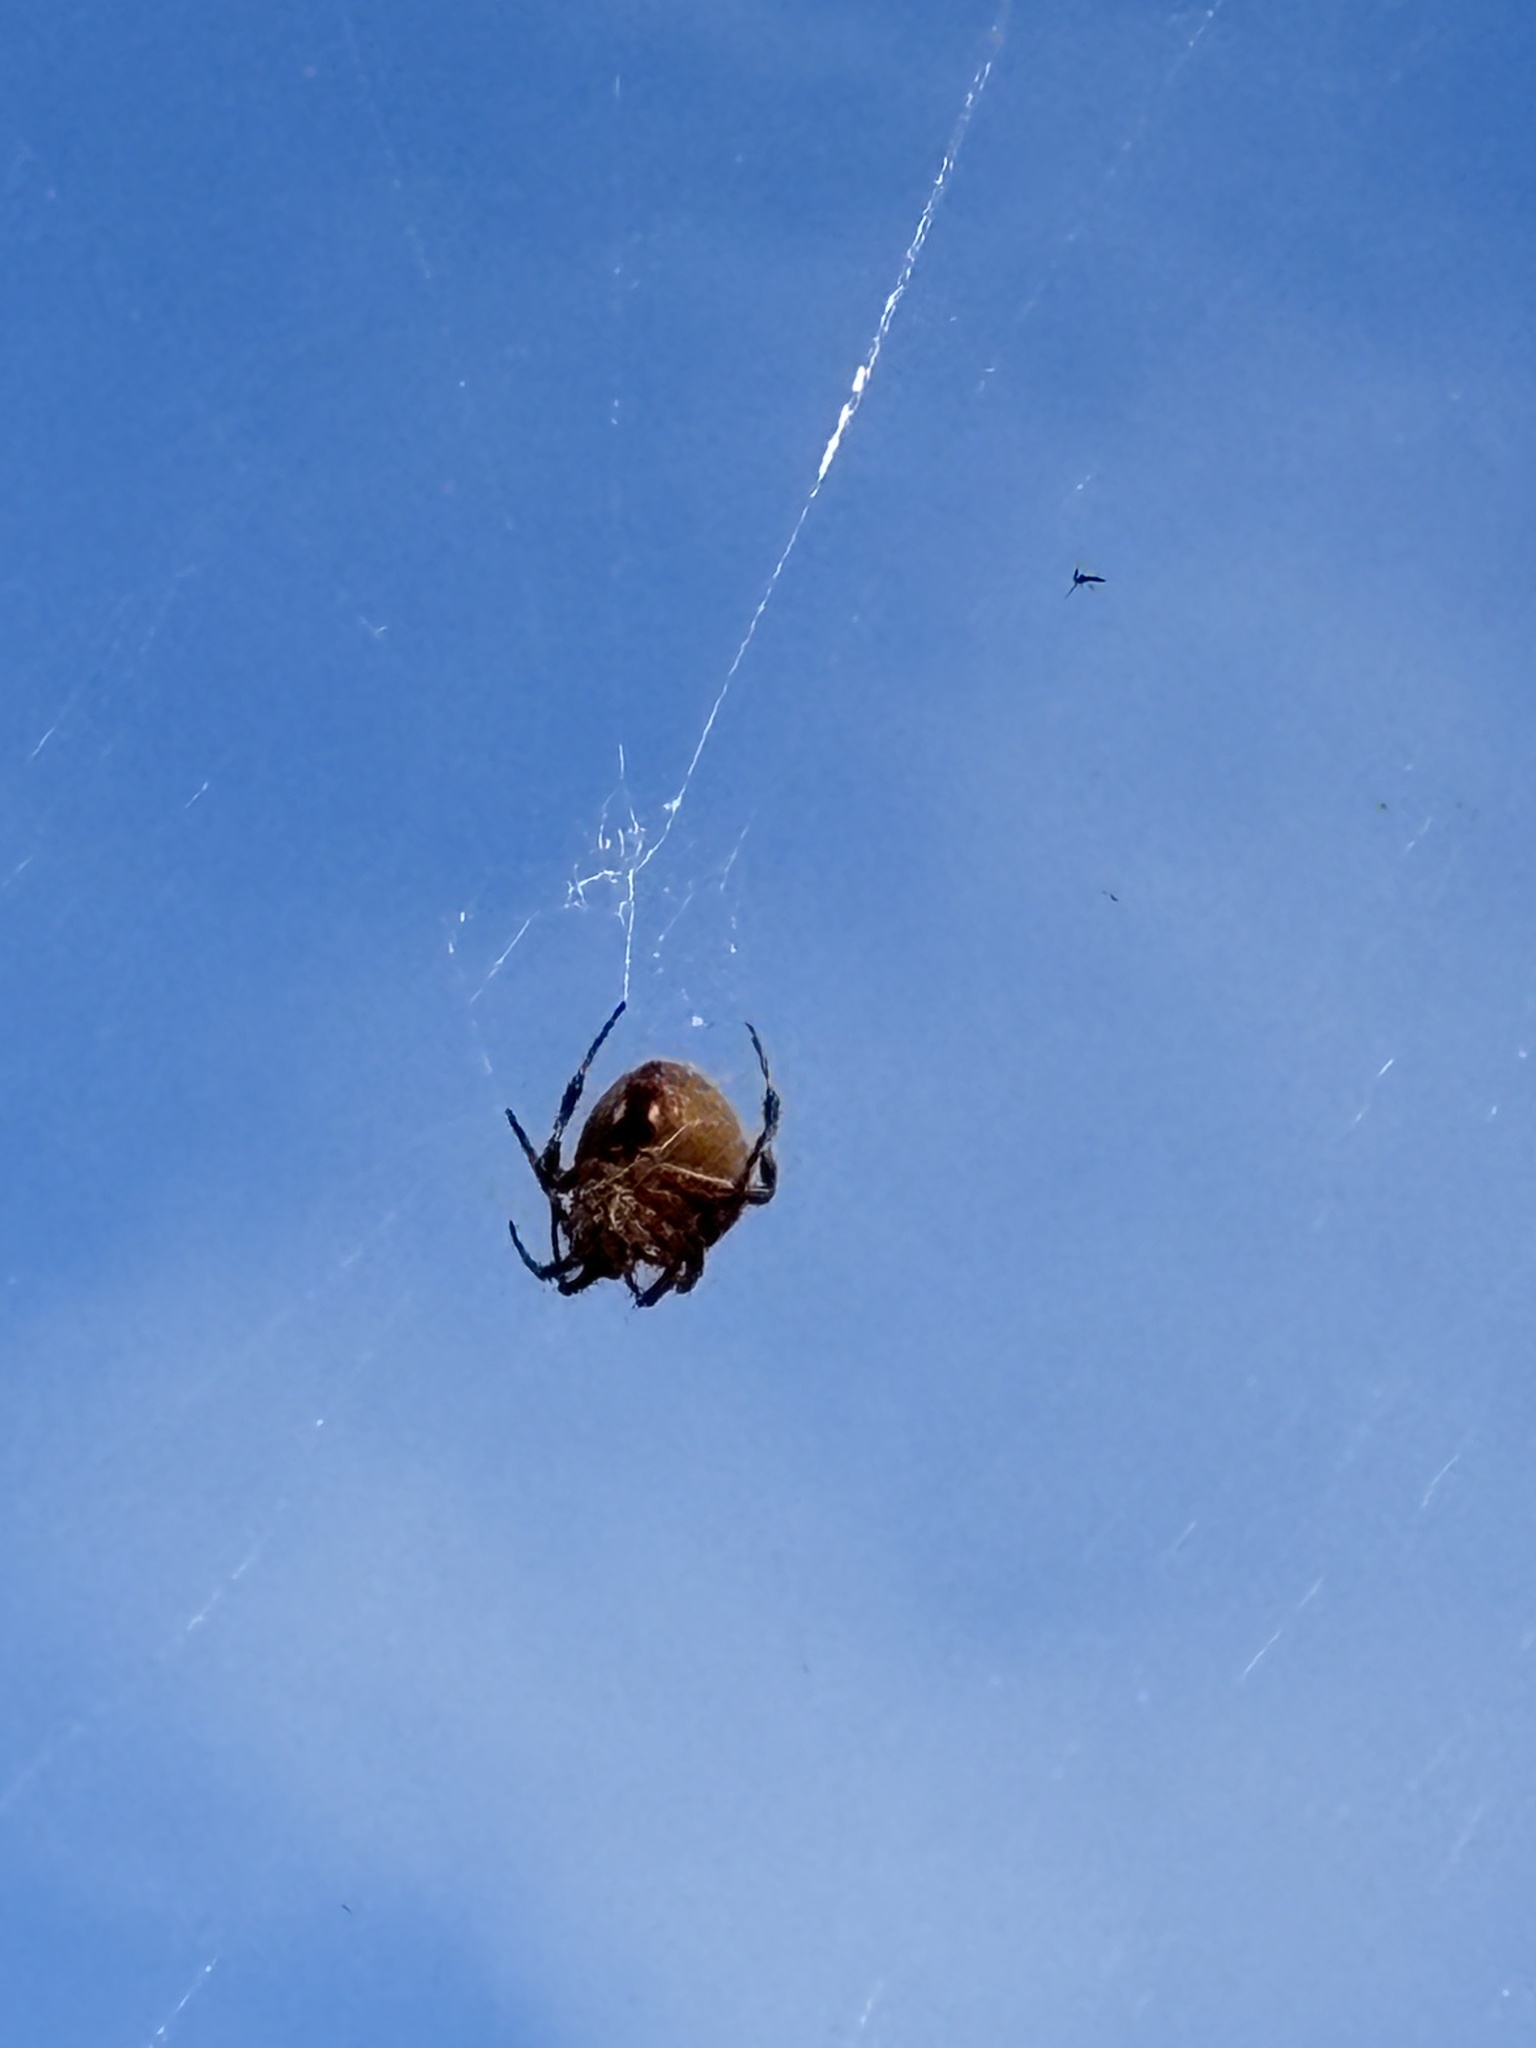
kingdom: Animalia
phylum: Arthropoda
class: Arachnida
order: Araneae
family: Araneidae
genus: Neoscona
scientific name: Neoscona crucifera
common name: Spotted orbweaver
